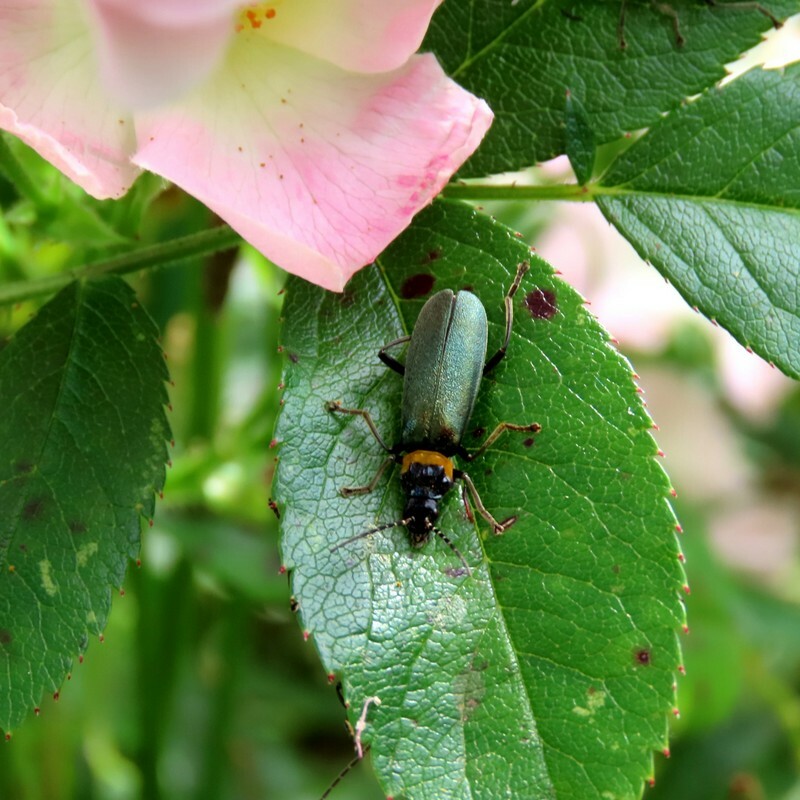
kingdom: Animalia
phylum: Arthropoda
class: Insecta
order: Coleoptera
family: Cantharidae
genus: Chauliognathus
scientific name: Chauliognathus
